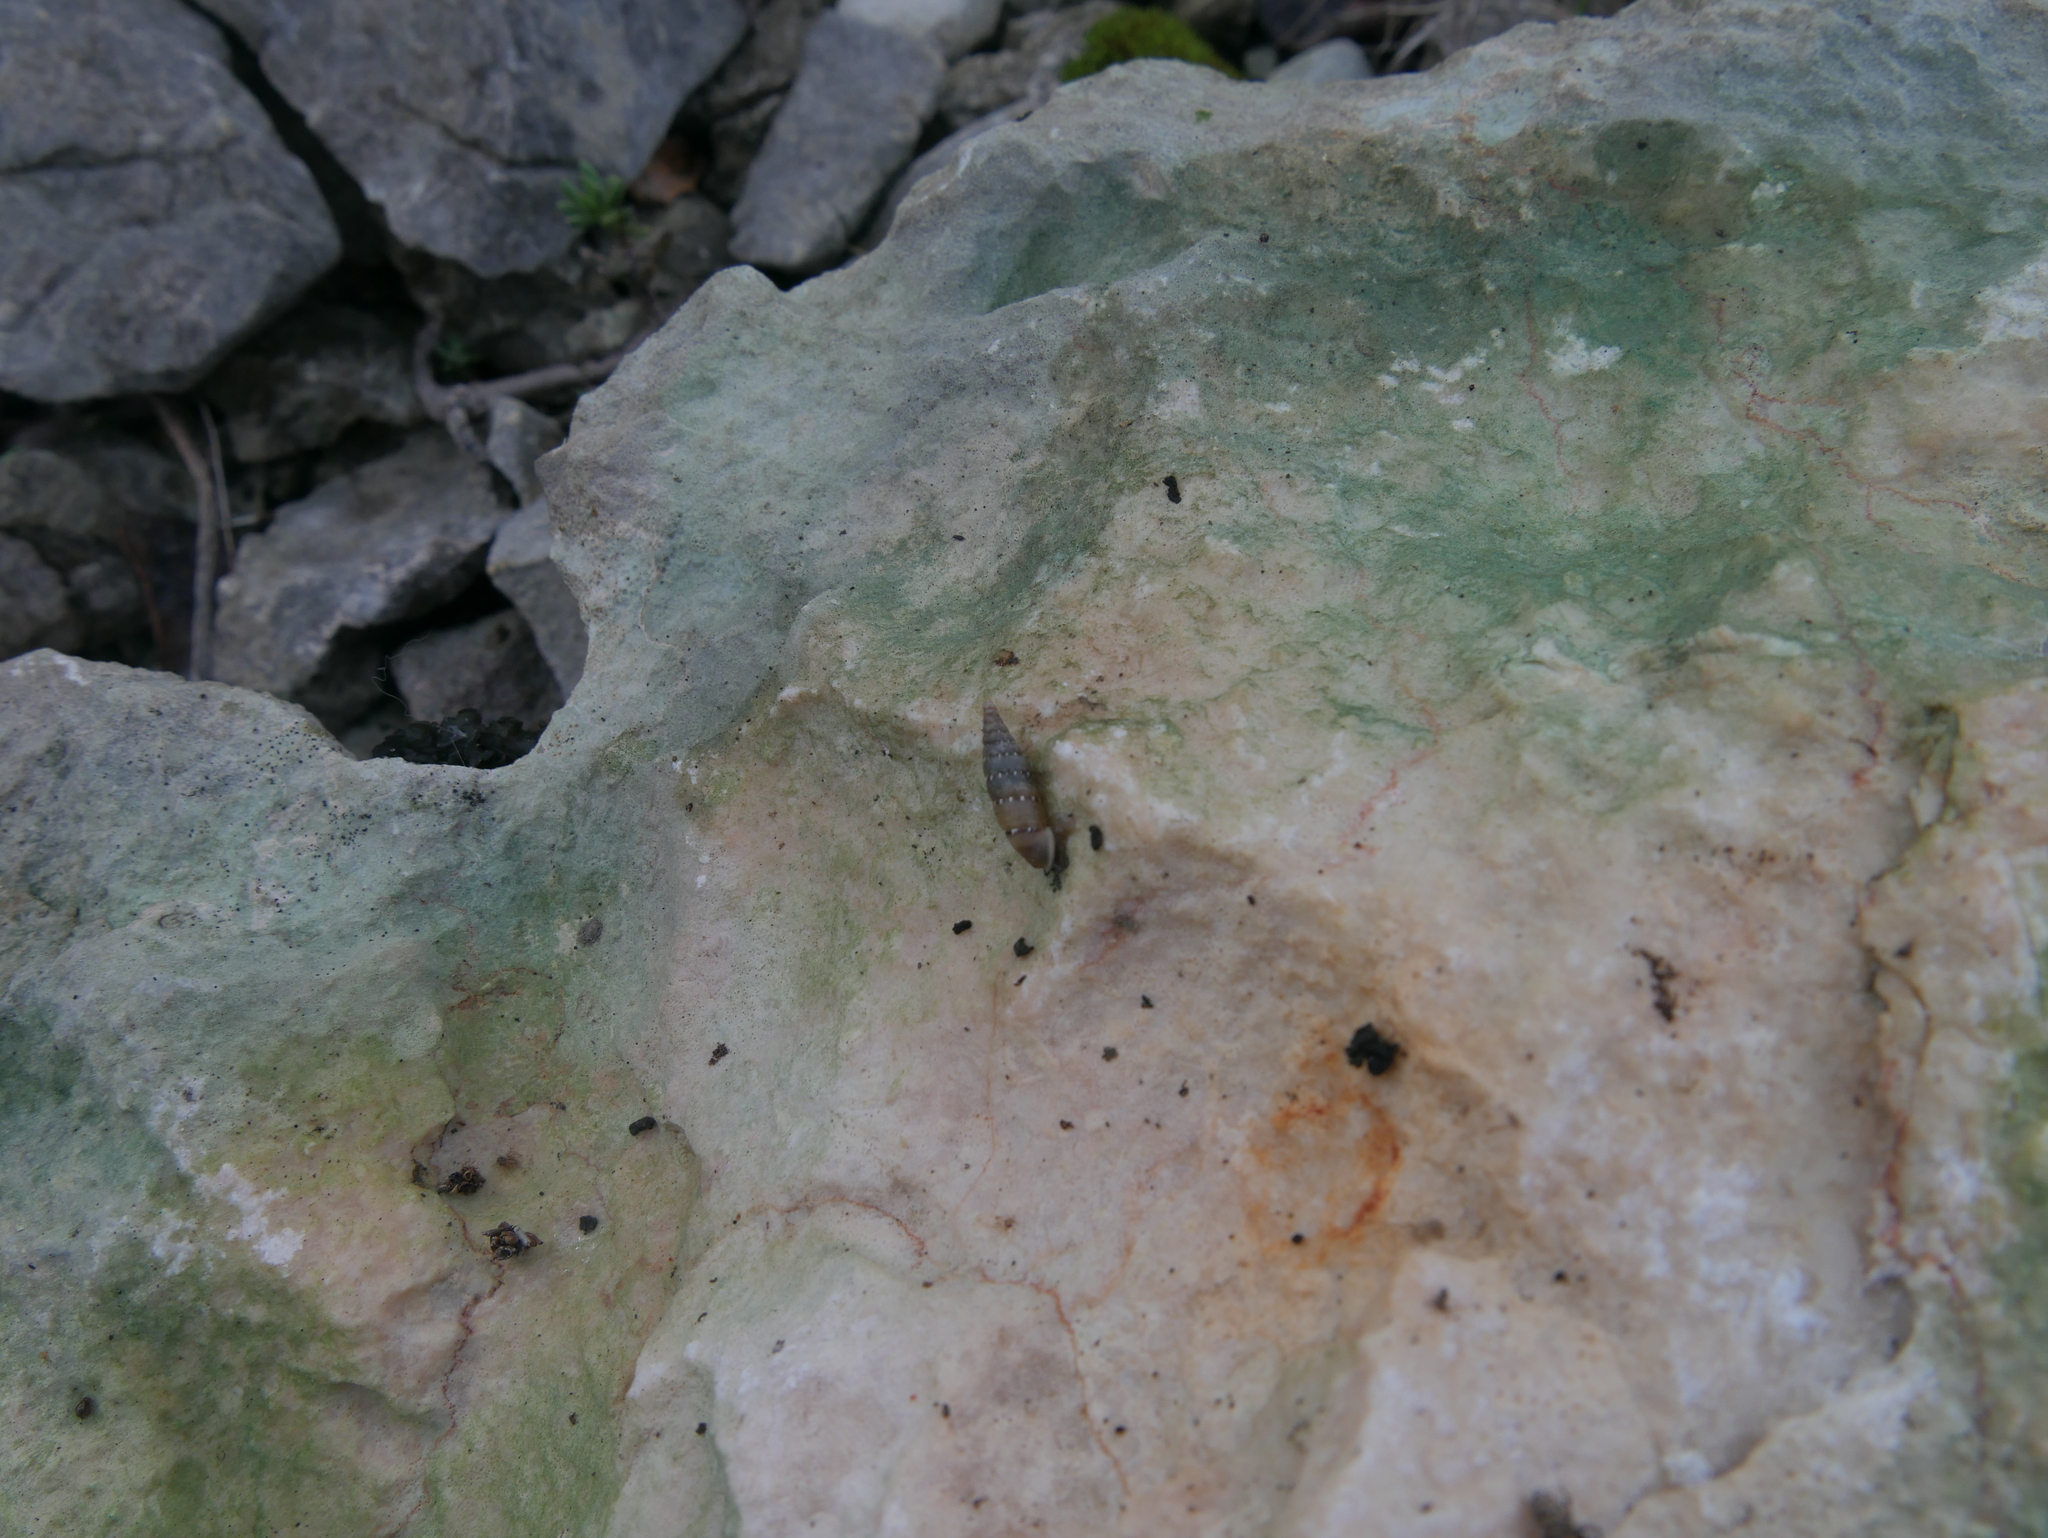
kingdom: Animalia
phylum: Mollusca
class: Gastropoda
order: Stylommatophora
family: Clausiliidae
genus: Papillifera
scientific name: Papillifera papillaris
